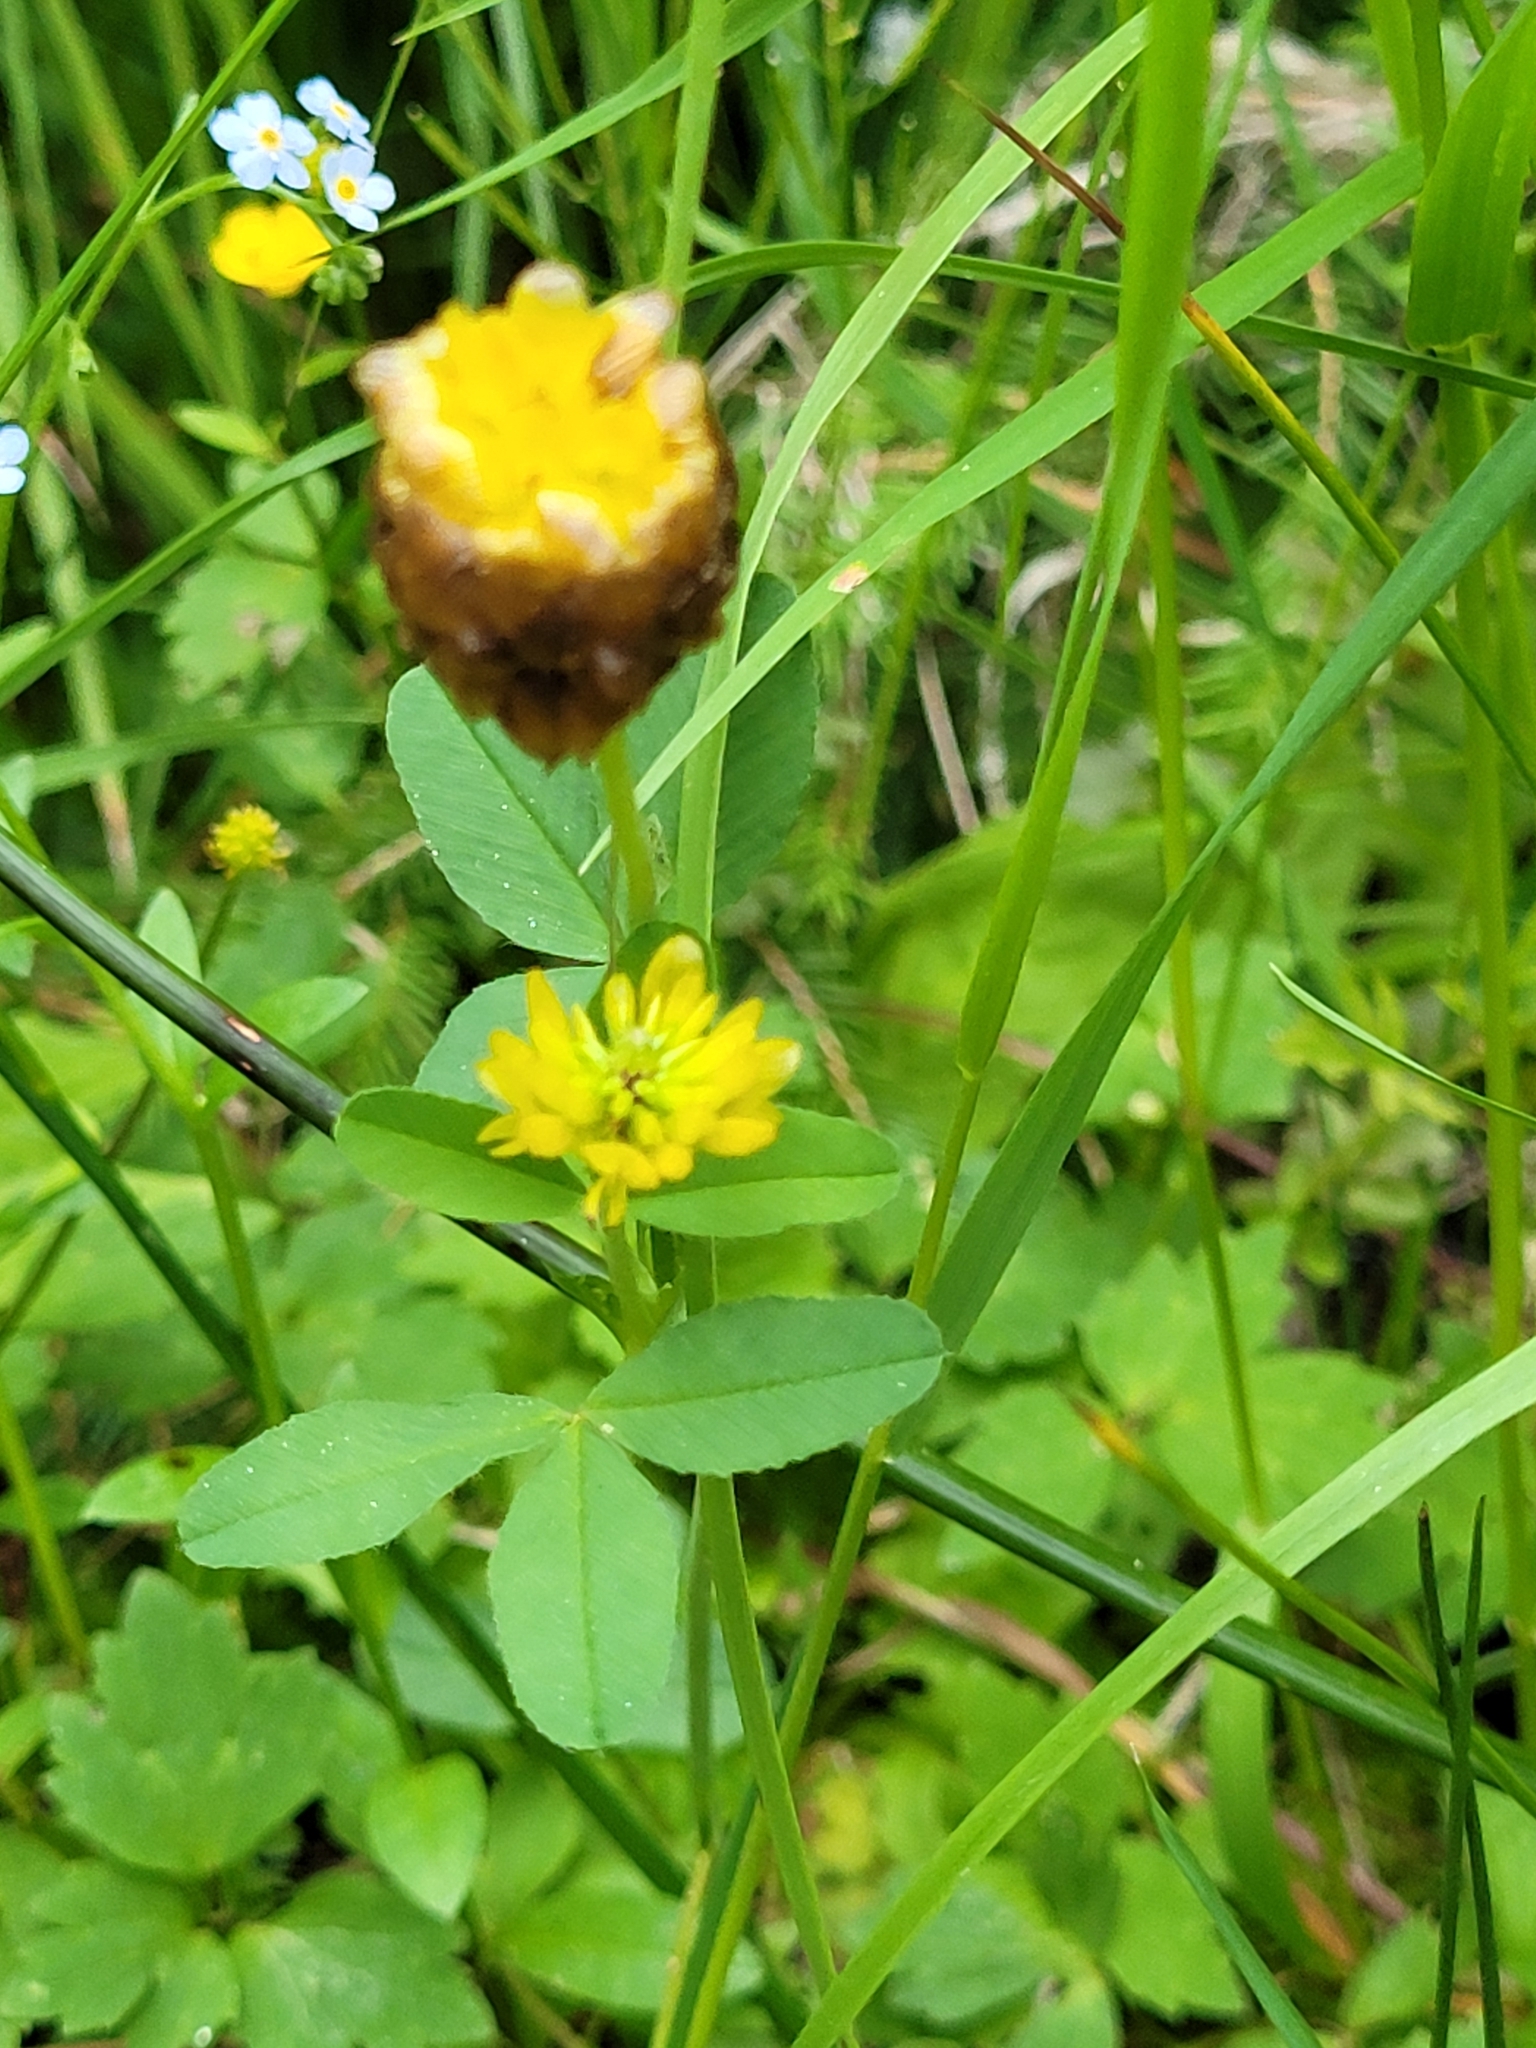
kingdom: Plantae
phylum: Tracheophyta
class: Magnoliopsida
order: Fabales
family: Fabaceae
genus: Trifolium
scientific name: Trifolium badium
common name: Brown clover
